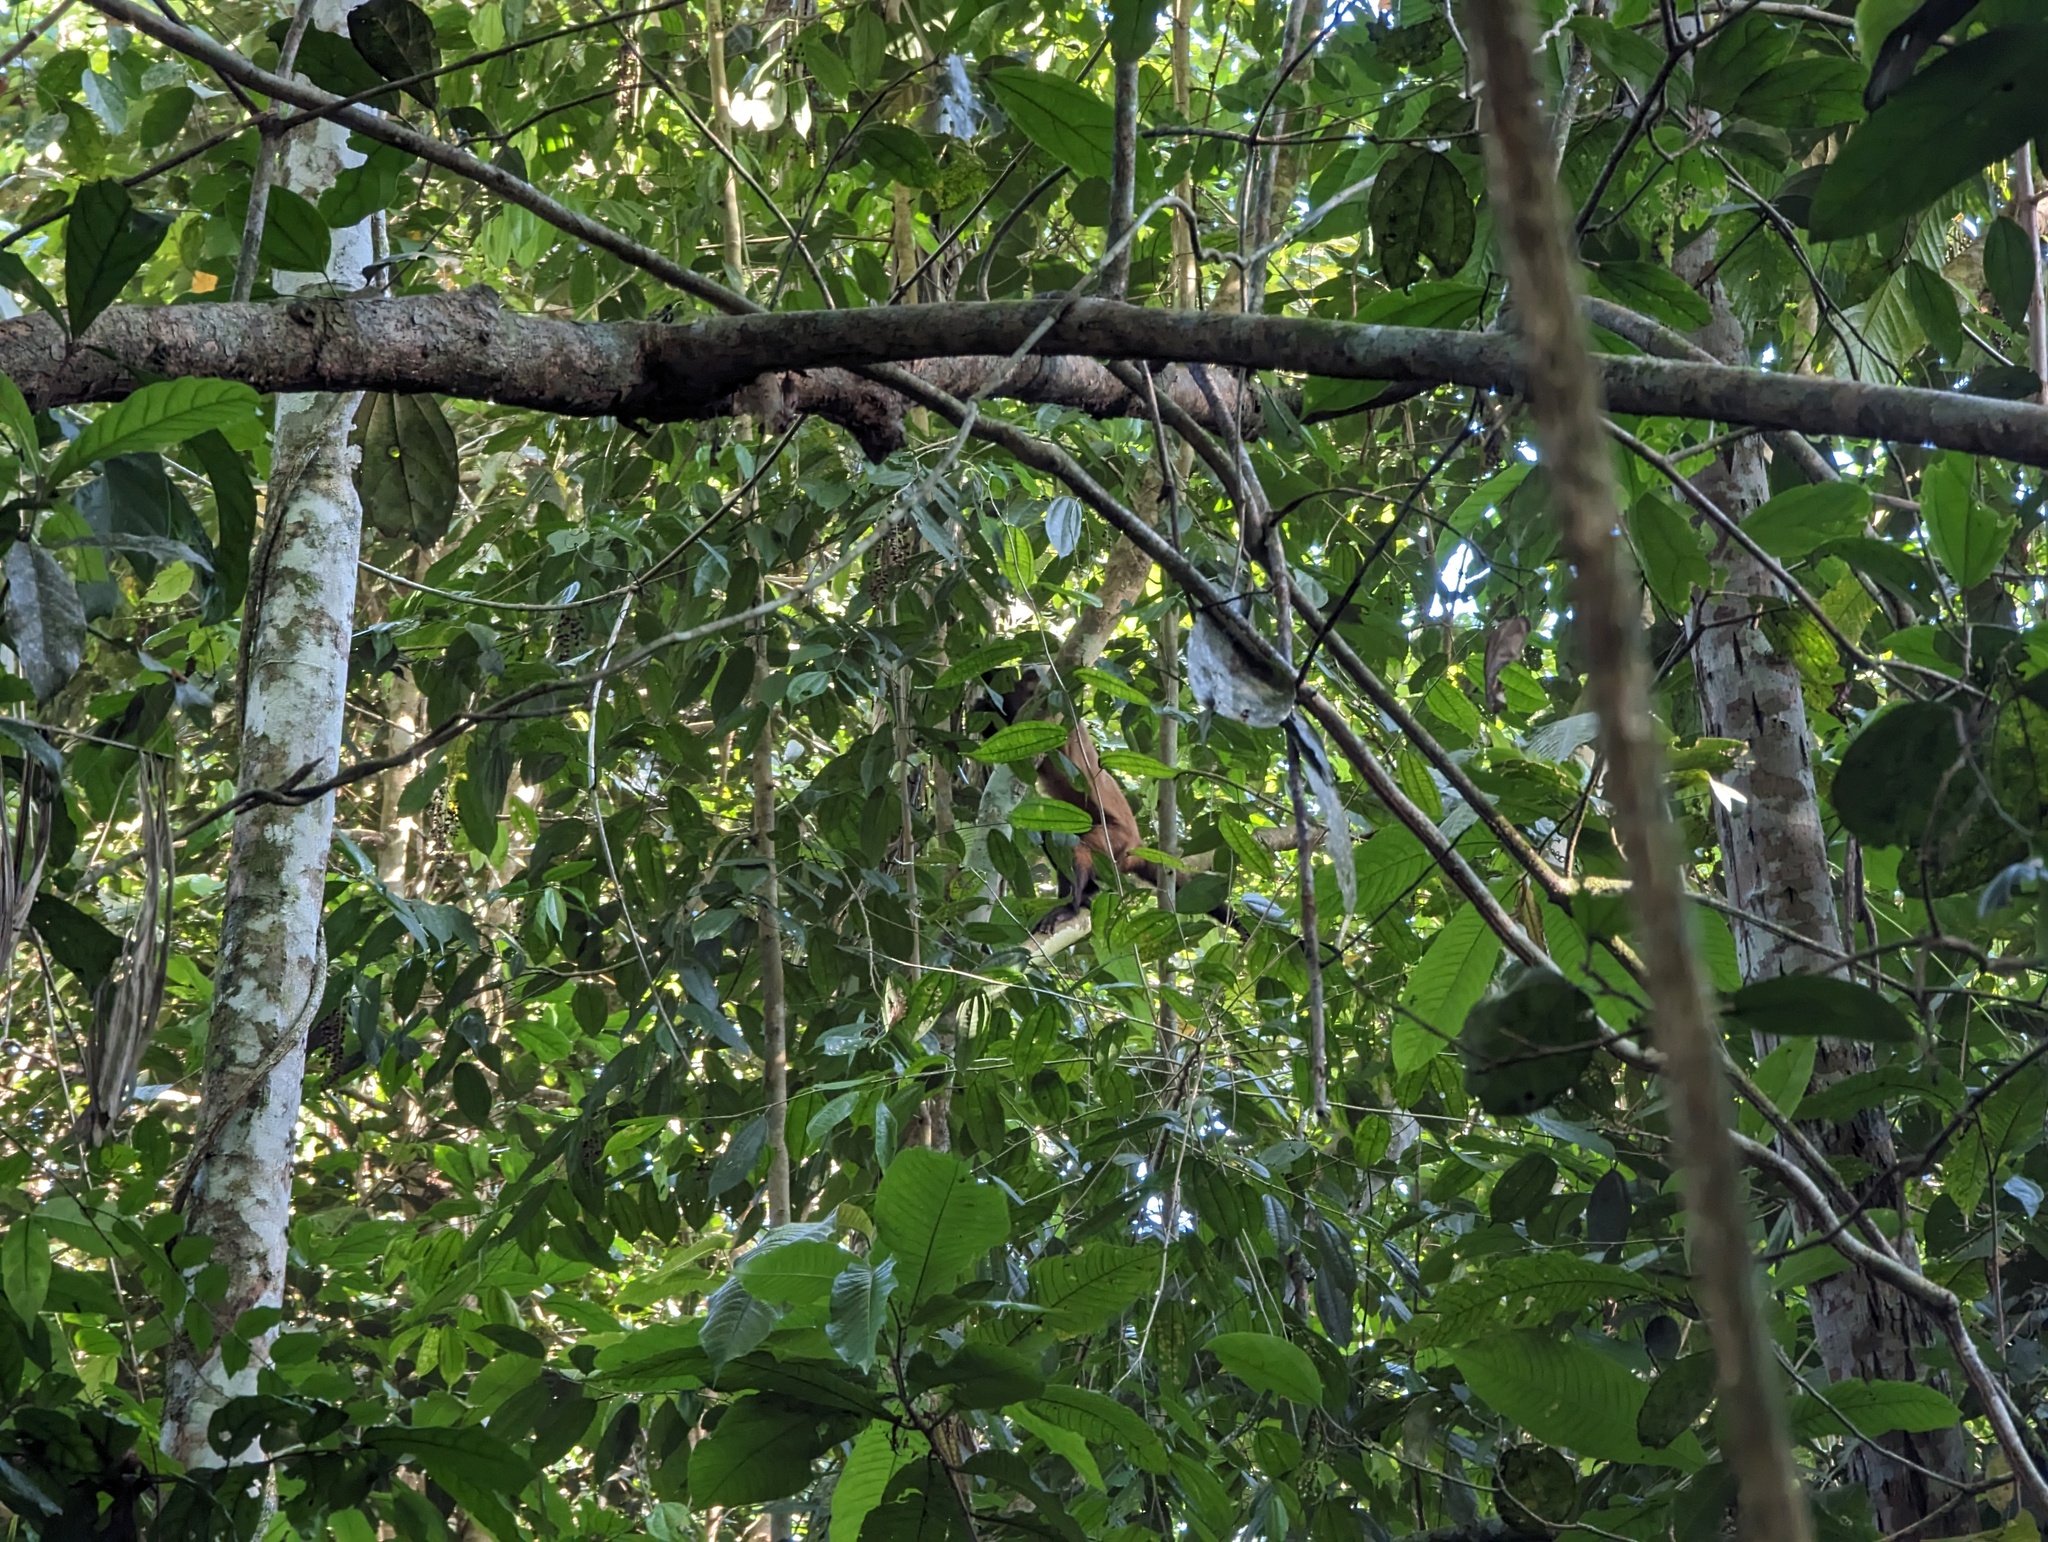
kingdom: Animalia
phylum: Chordata
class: Mammalia
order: Primates
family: Cebidae
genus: Sapajus
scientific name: Sapajus apella
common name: Tufted capuchin
